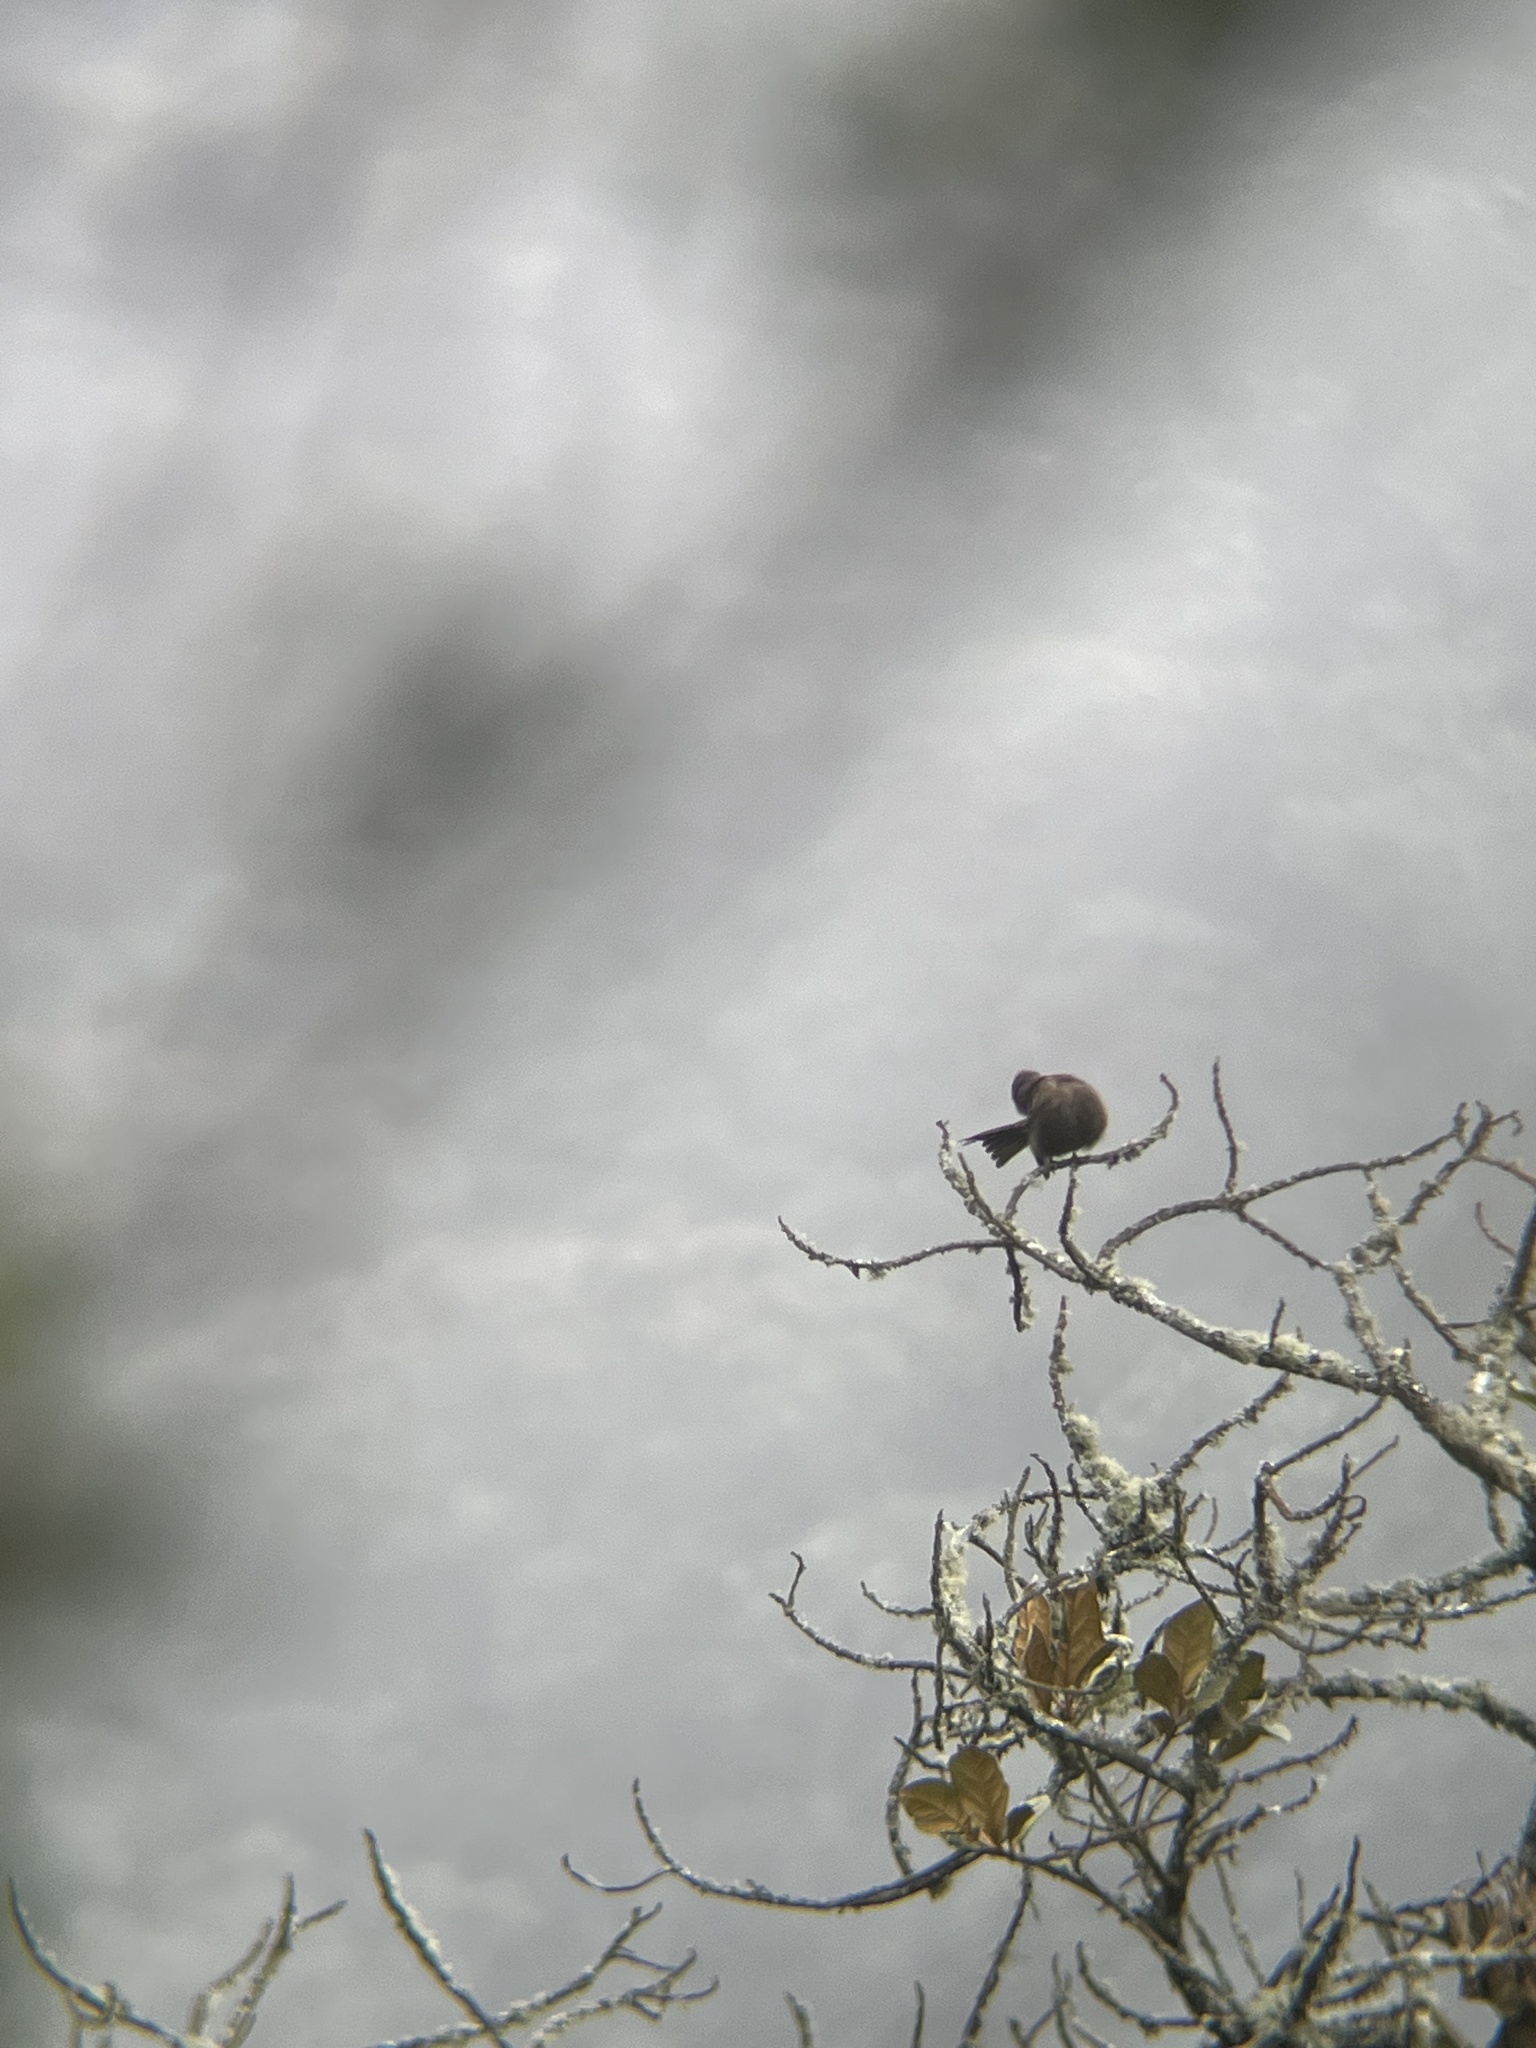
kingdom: Animalia
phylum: Chordata
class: Aves
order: Passeriformes
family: Tyrannidae
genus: Myiotheretes
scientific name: Myiotheretes fumigatus
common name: Smoky bush tyrant
